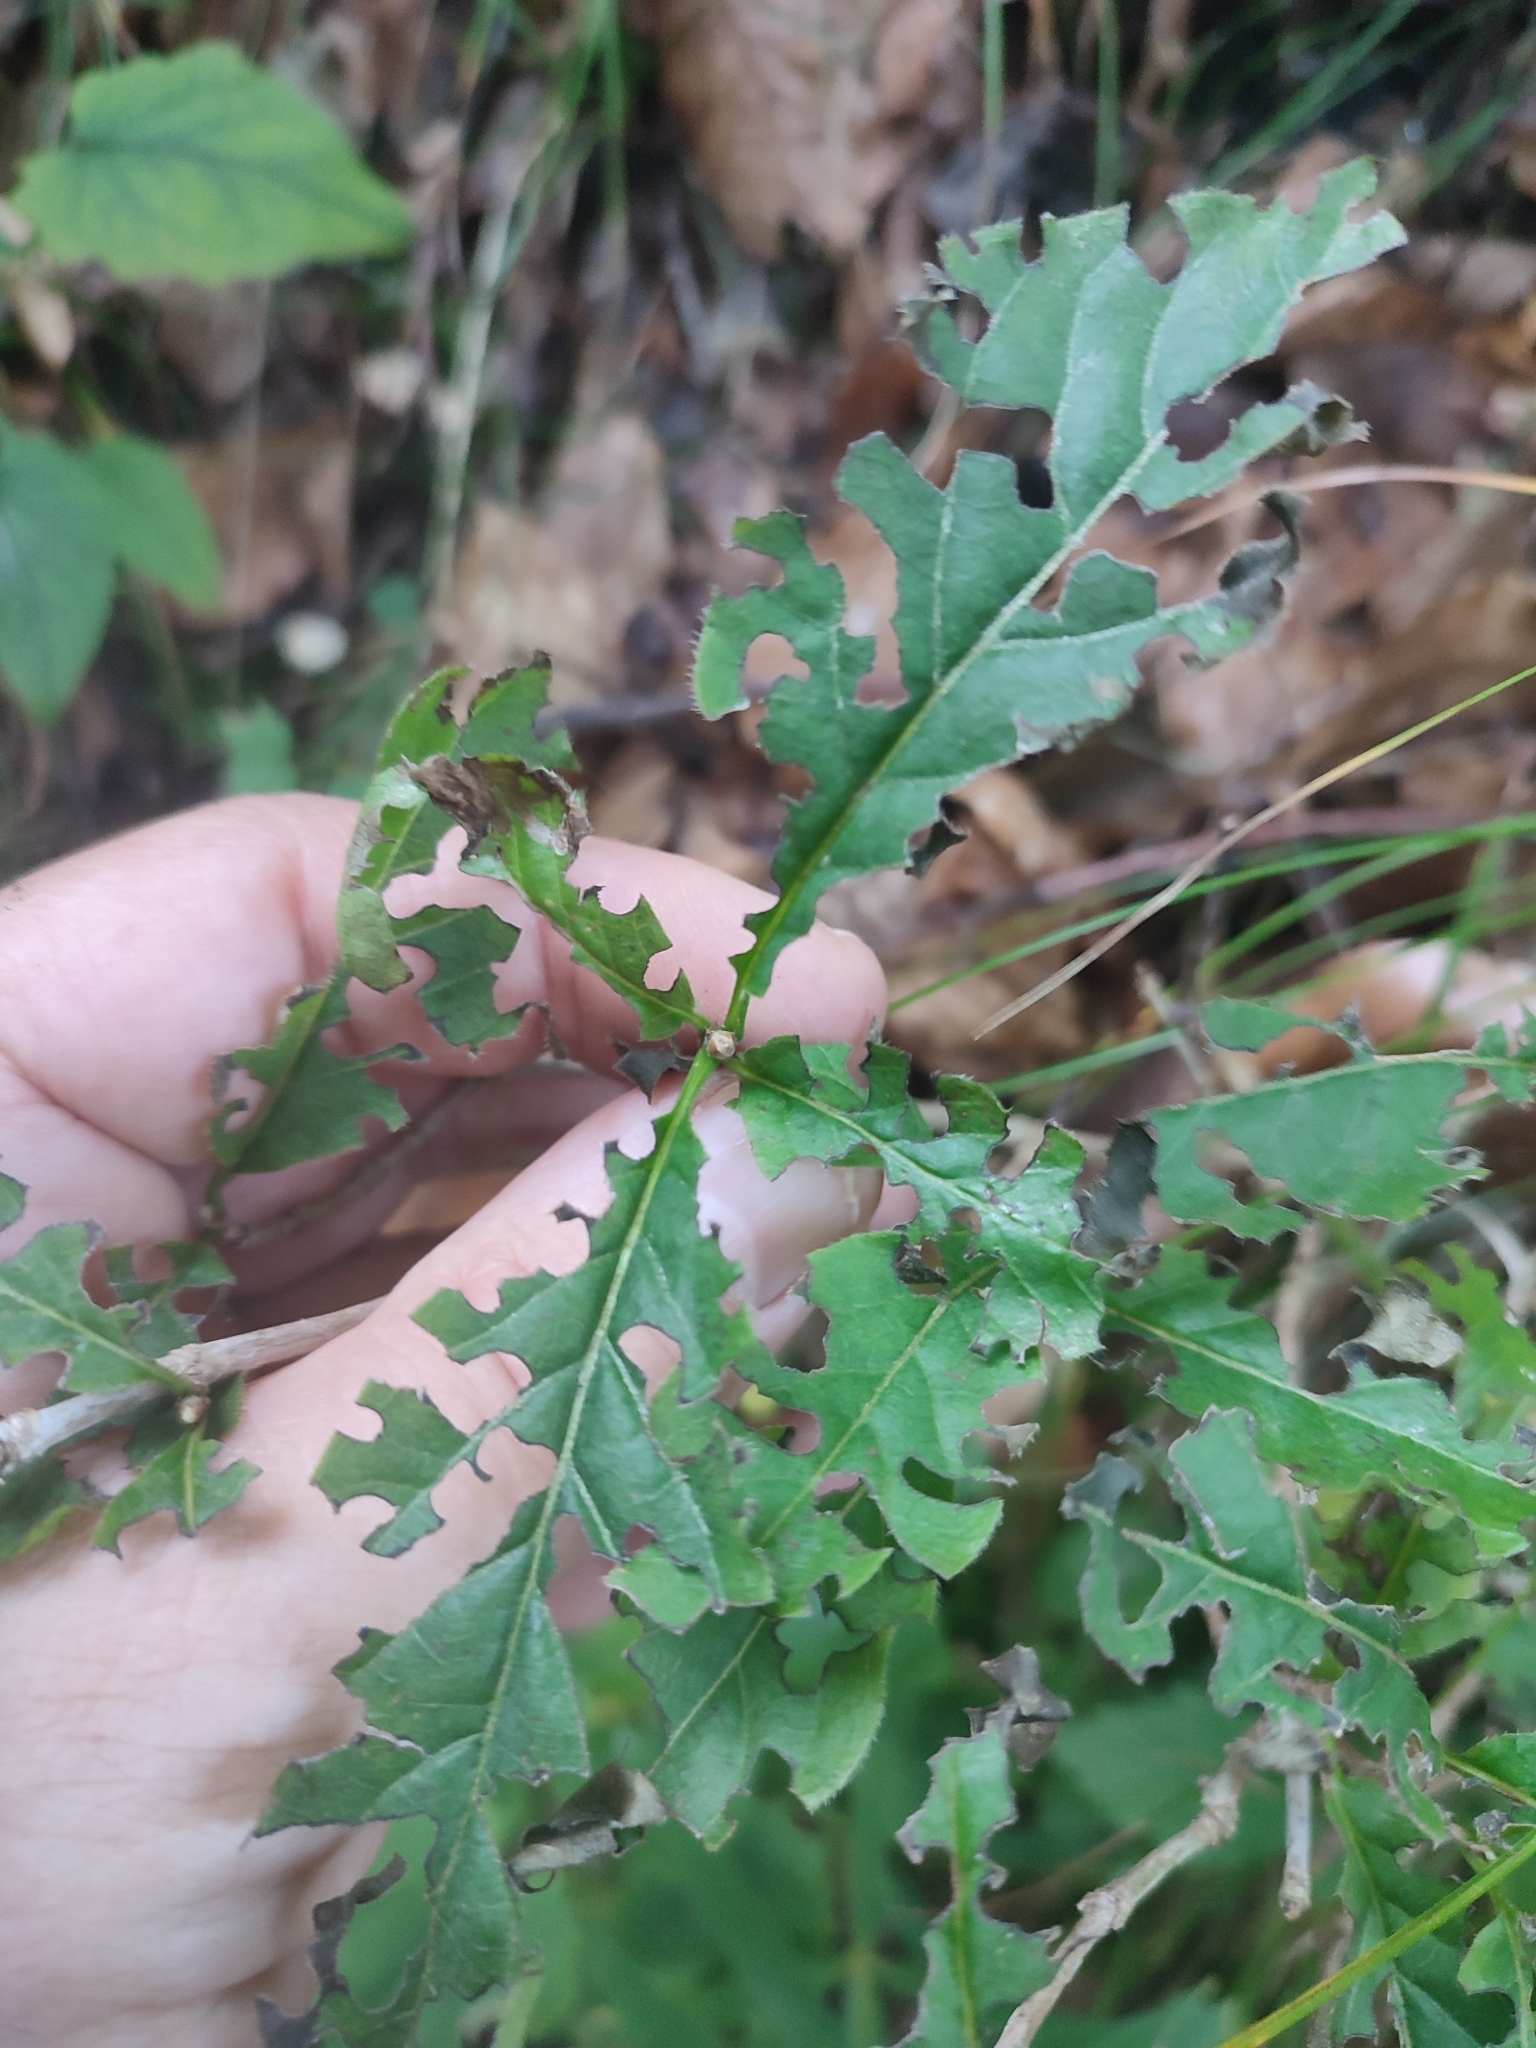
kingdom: Plantae
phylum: Tracheophyta
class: Magnoliopsida
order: Dipsacales
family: Caprifoliaceae
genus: Lonicera
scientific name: Lonicera alpigena
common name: Alpine honeysuckle
